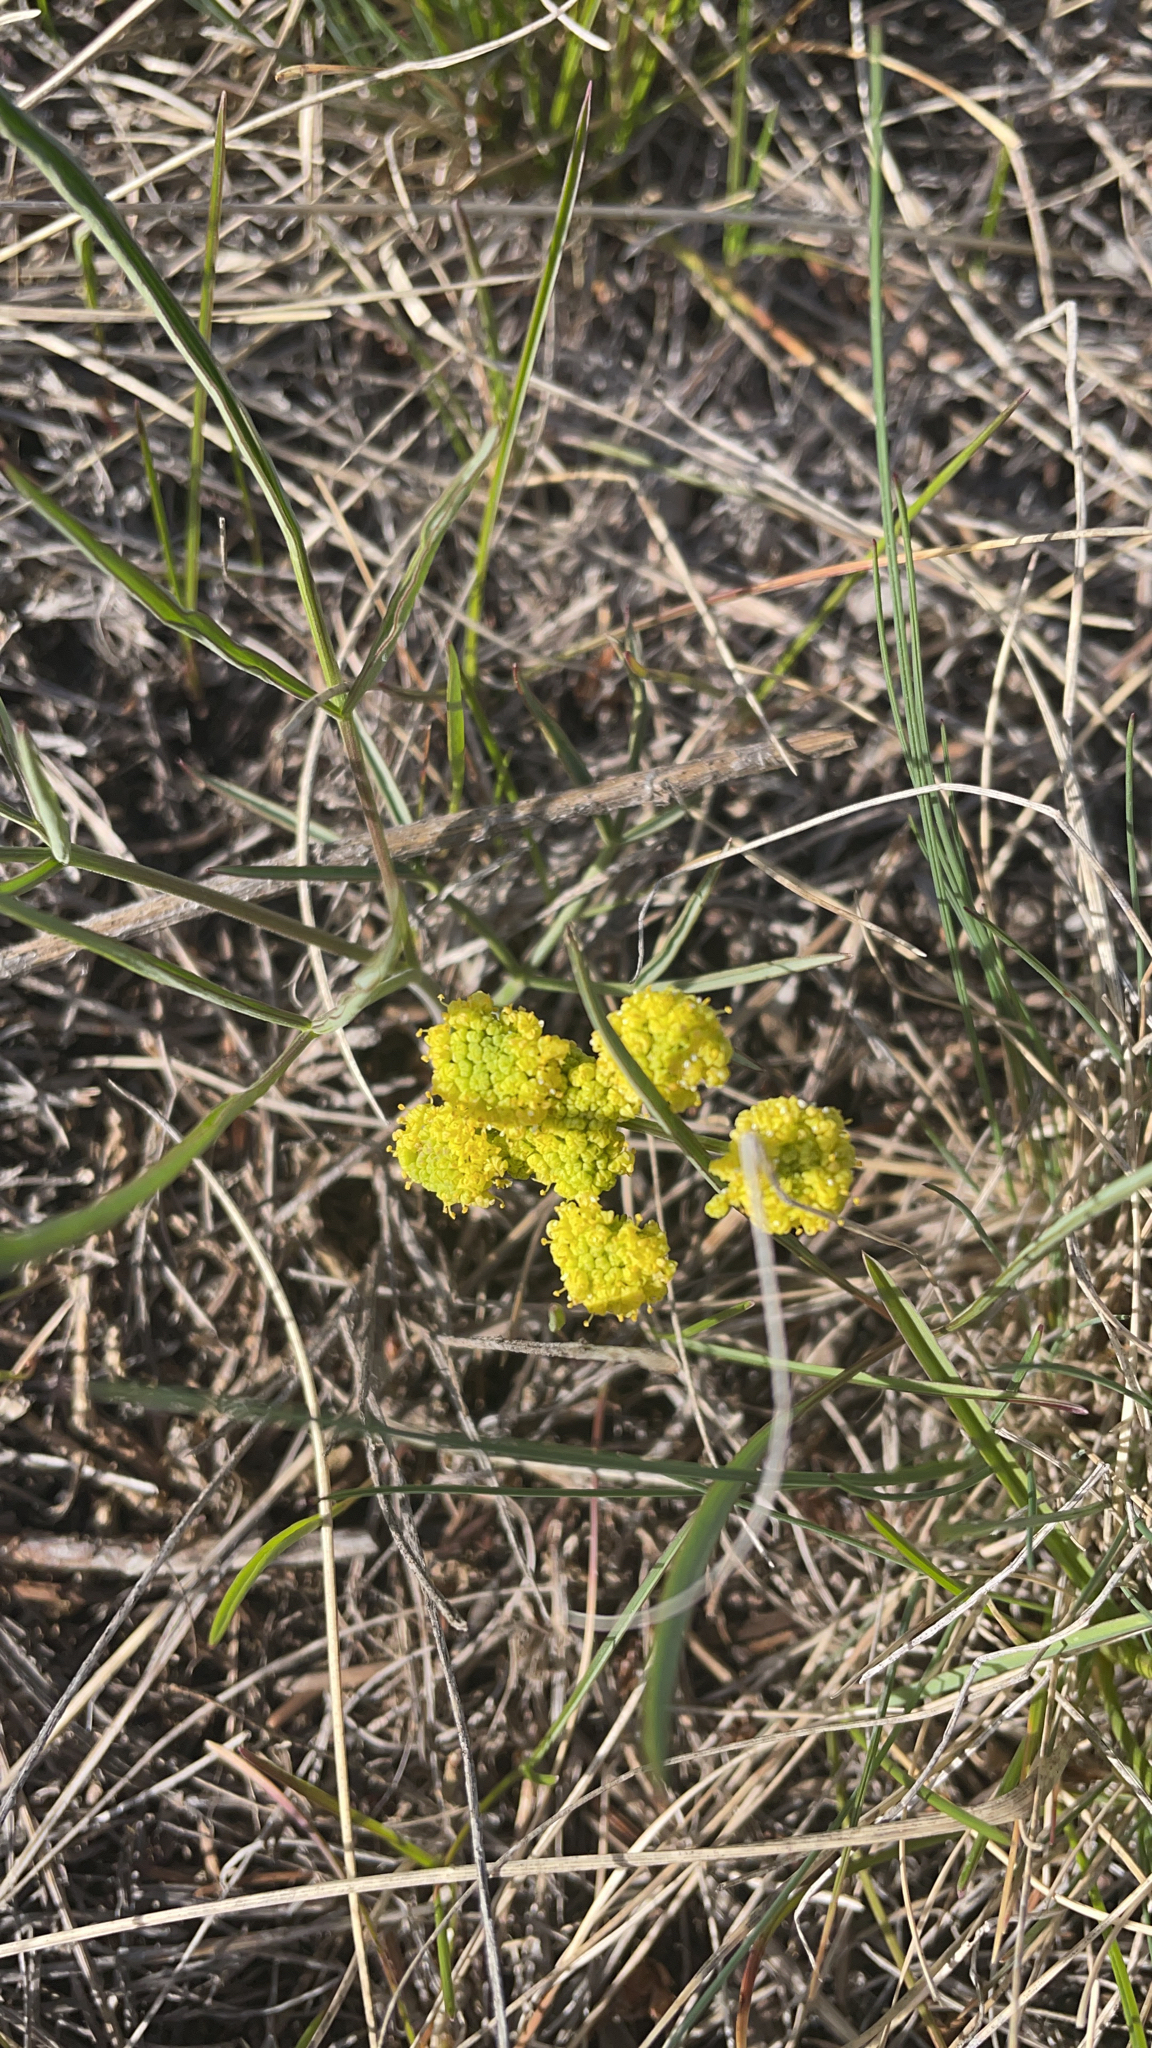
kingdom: Plantae
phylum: Tracheophyta
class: Magnoliopsida
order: Apiales
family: Apiaceae
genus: Lomatium
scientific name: Lomatium triternatum
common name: Ternate lomatium
